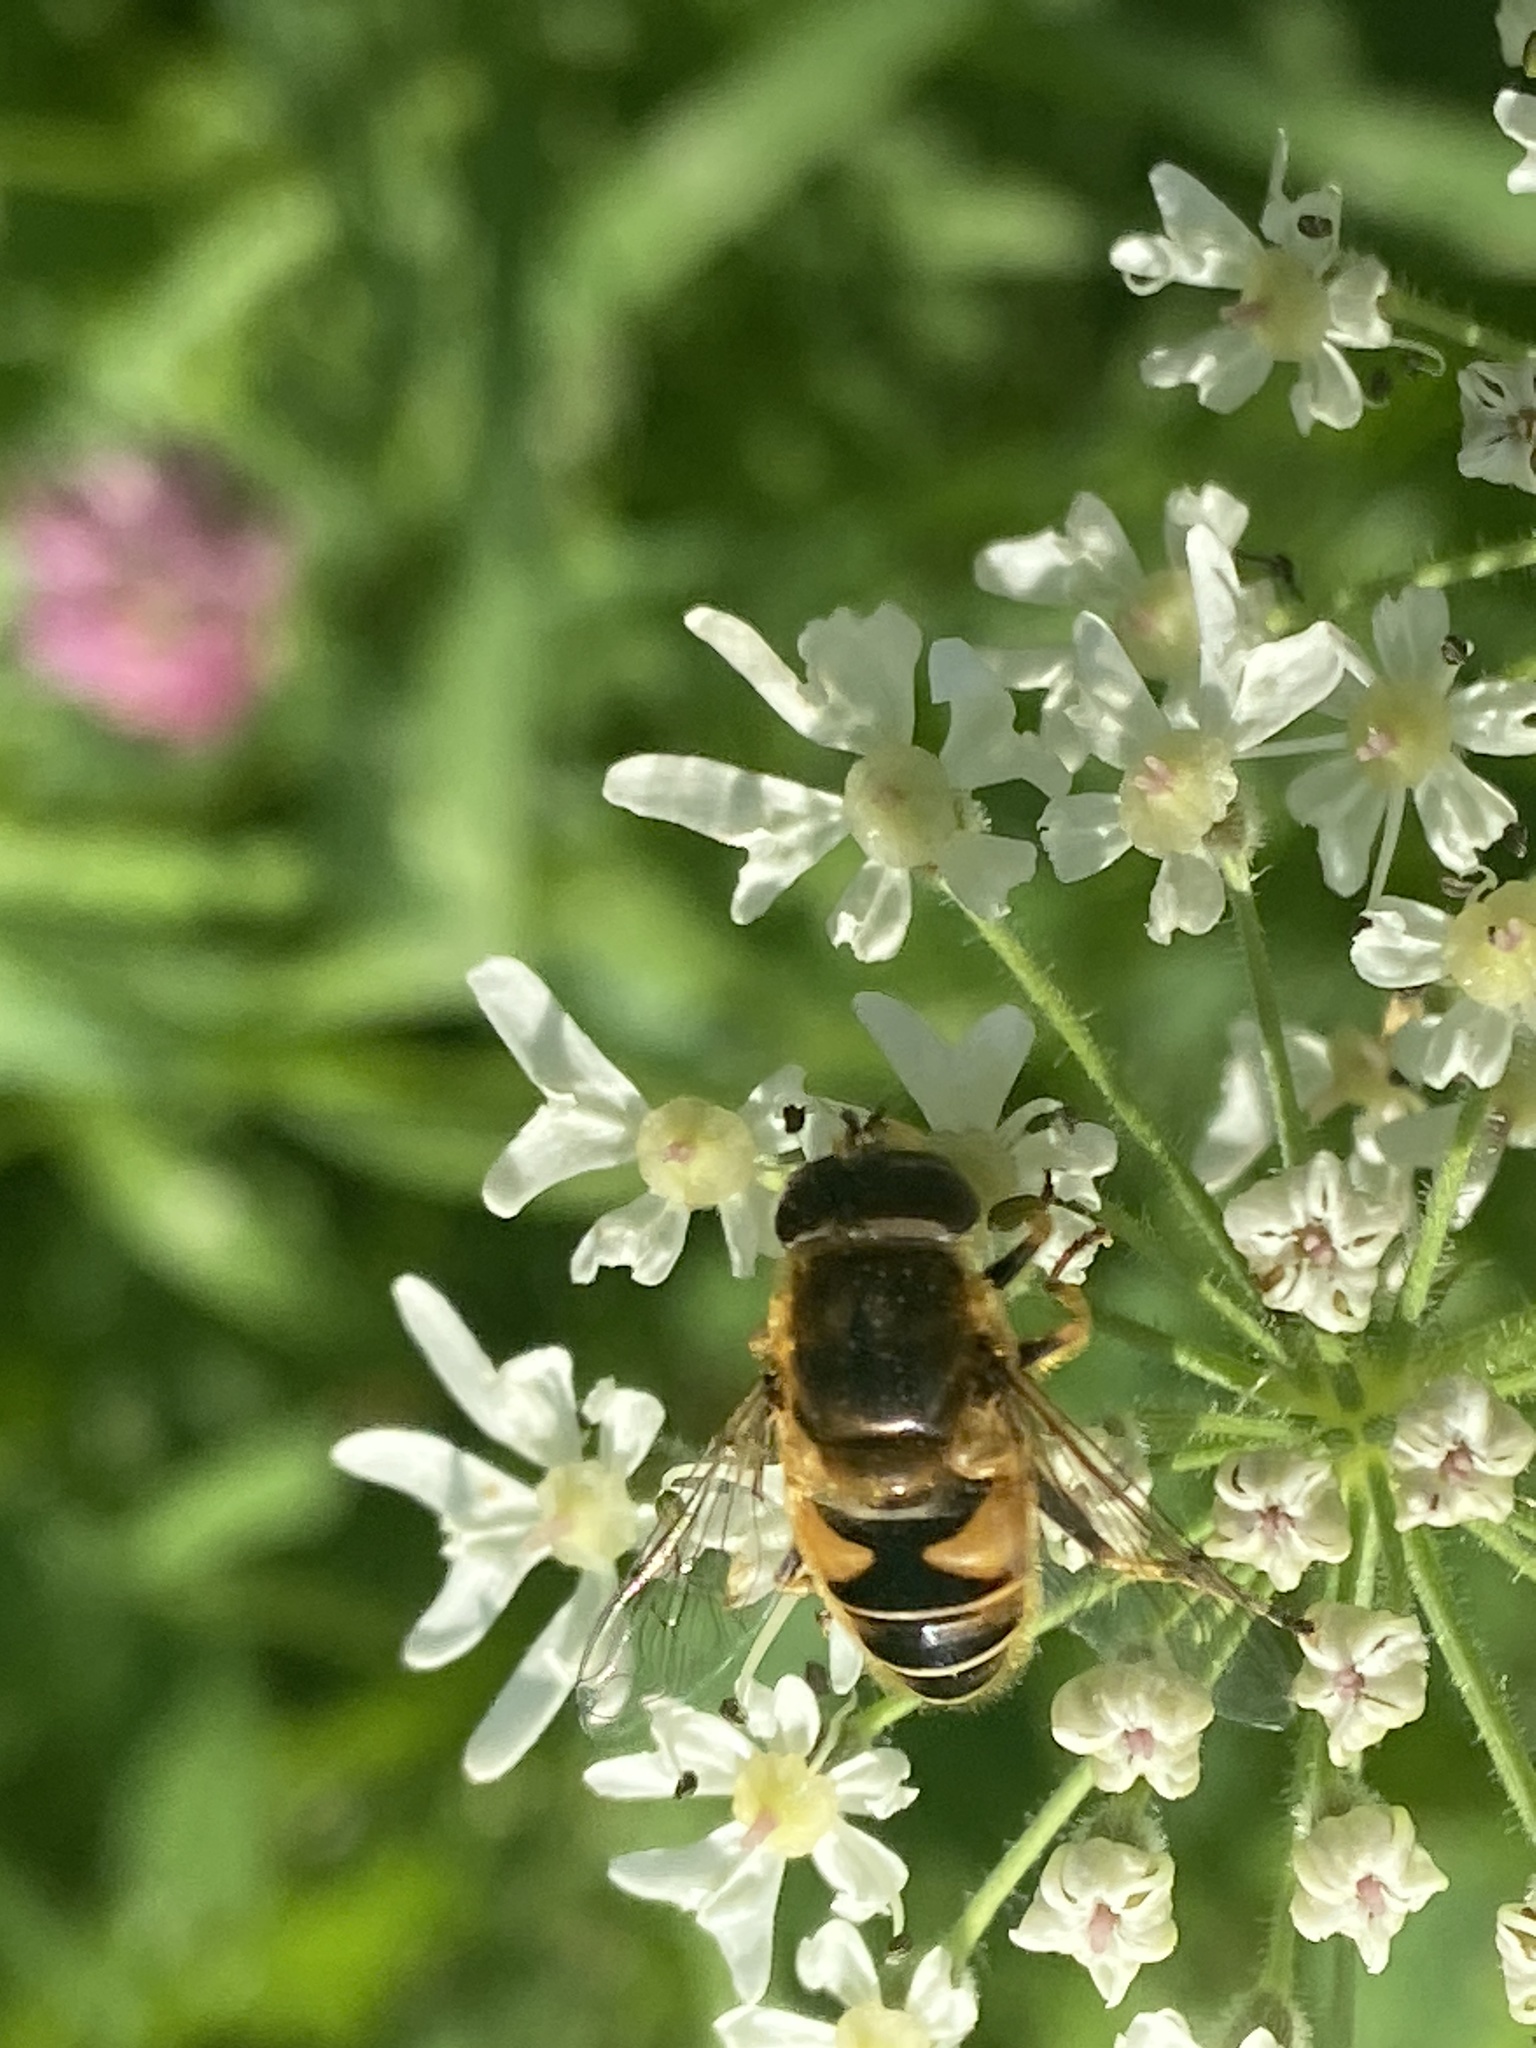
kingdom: Animalia
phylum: Arthropoda
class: Insecta
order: Diptera
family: Syrphidae
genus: Eristalis
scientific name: Eristalis nemorum
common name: Orange-spined drone fly
